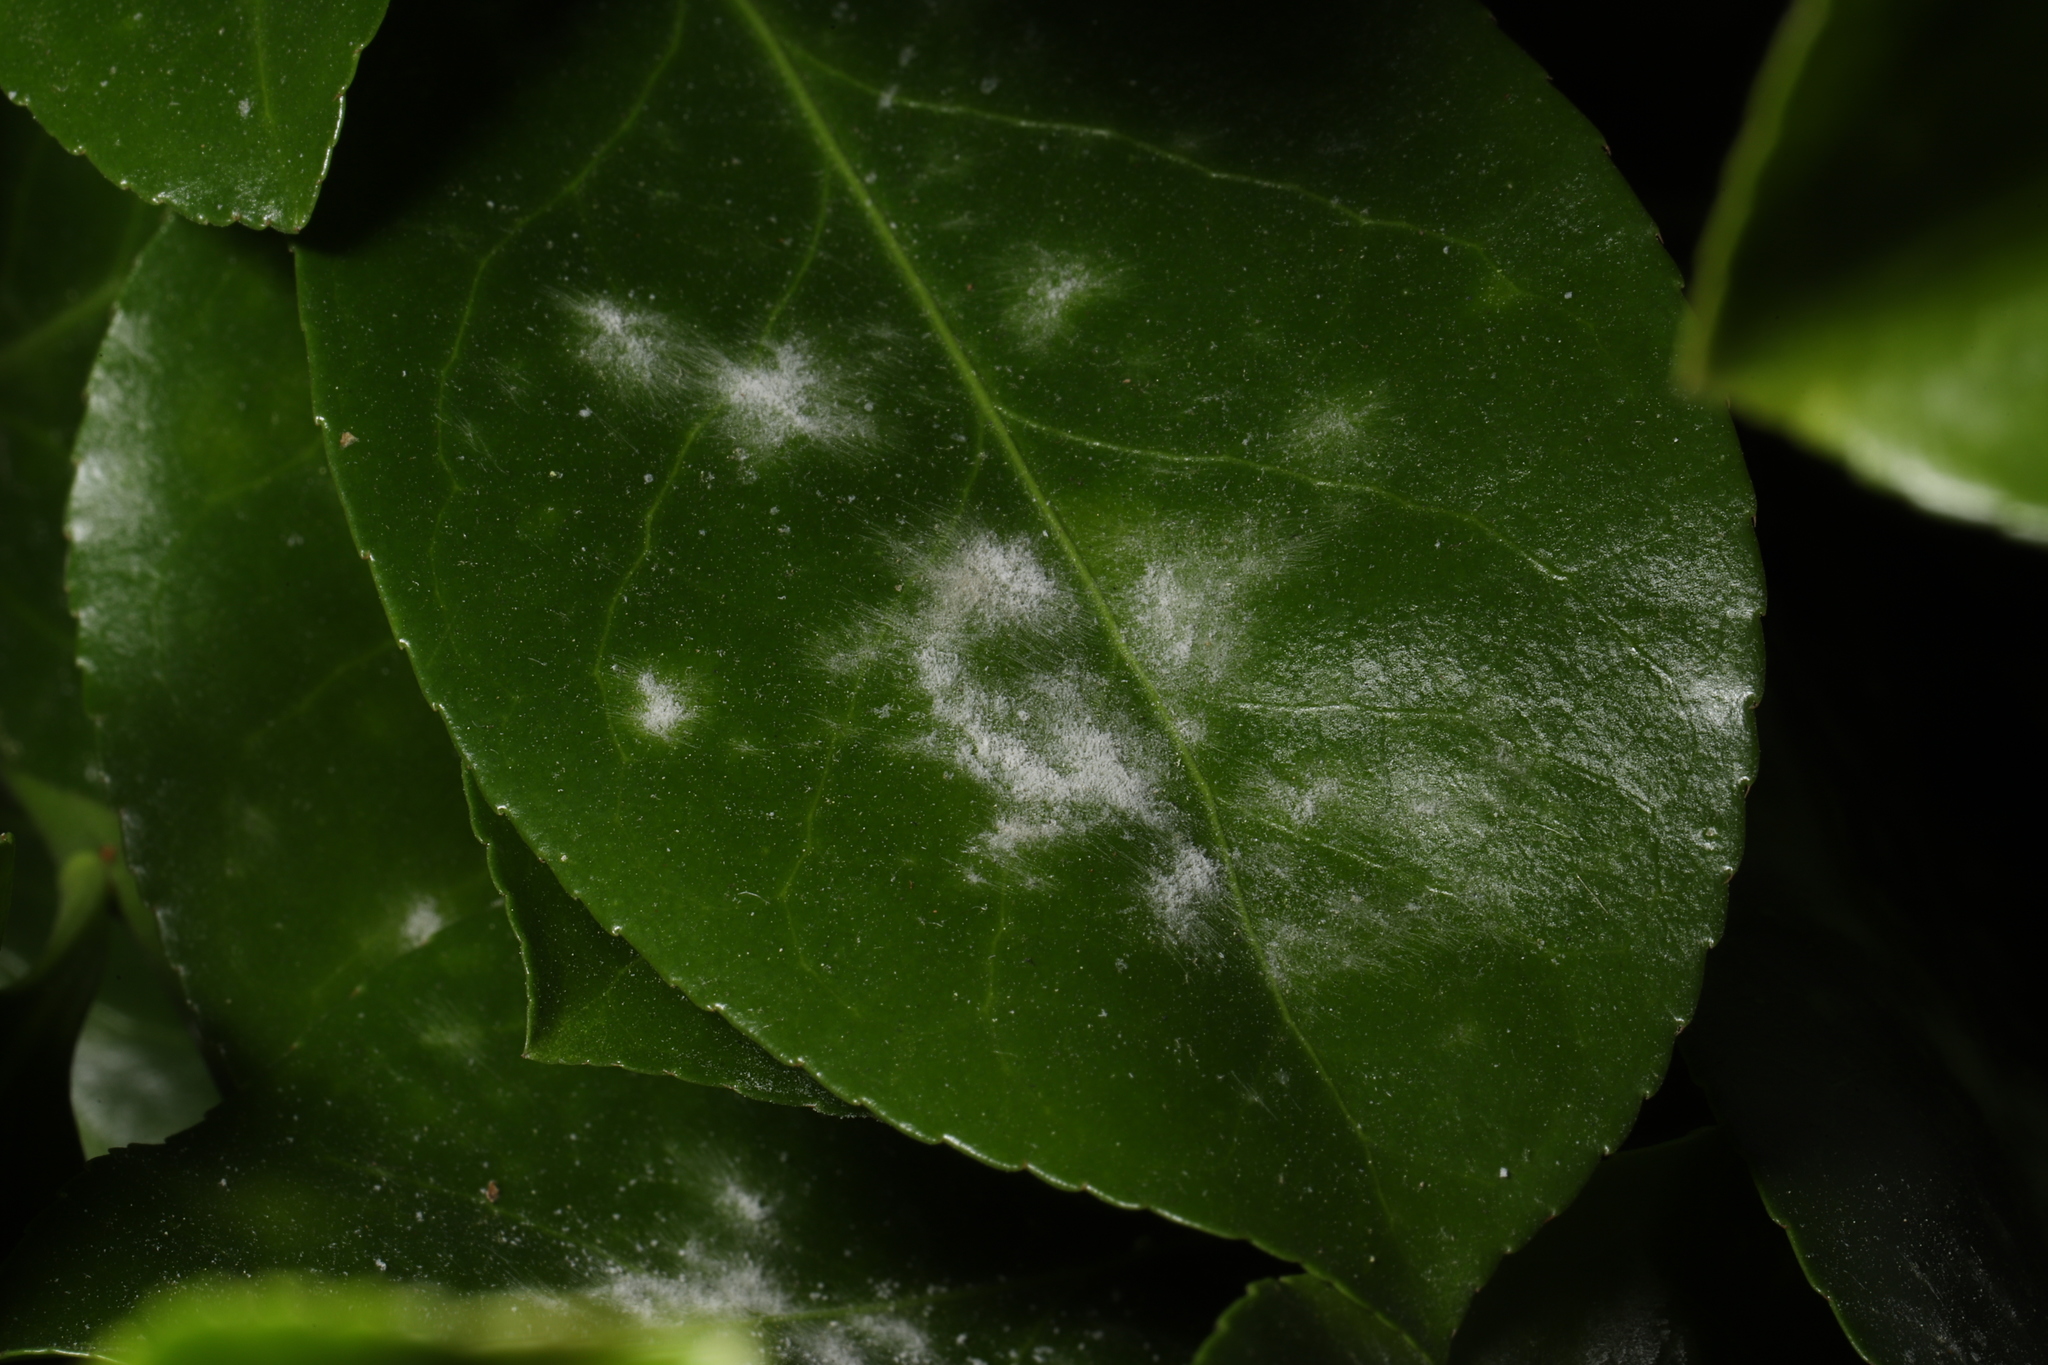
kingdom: Fungi
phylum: Ascomycota
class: Leotiomycetes
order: Helotiales
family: Erysiphaceae
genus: Erysiphe
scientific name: Erysiphe euonymicola
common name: Spindletree mildew
